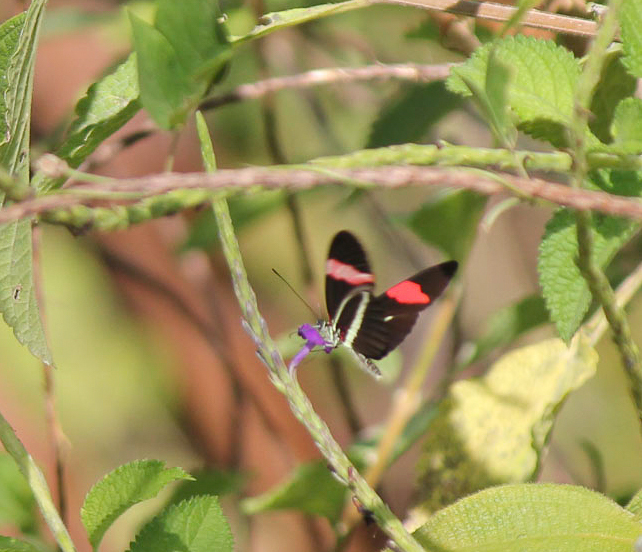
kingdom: Animalia
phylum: Arthropoda
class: Insecta
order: Lepidoptera
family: Nymphalidae
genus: Tirumala
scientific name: Tirumala petiverana
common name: Blue monarch
